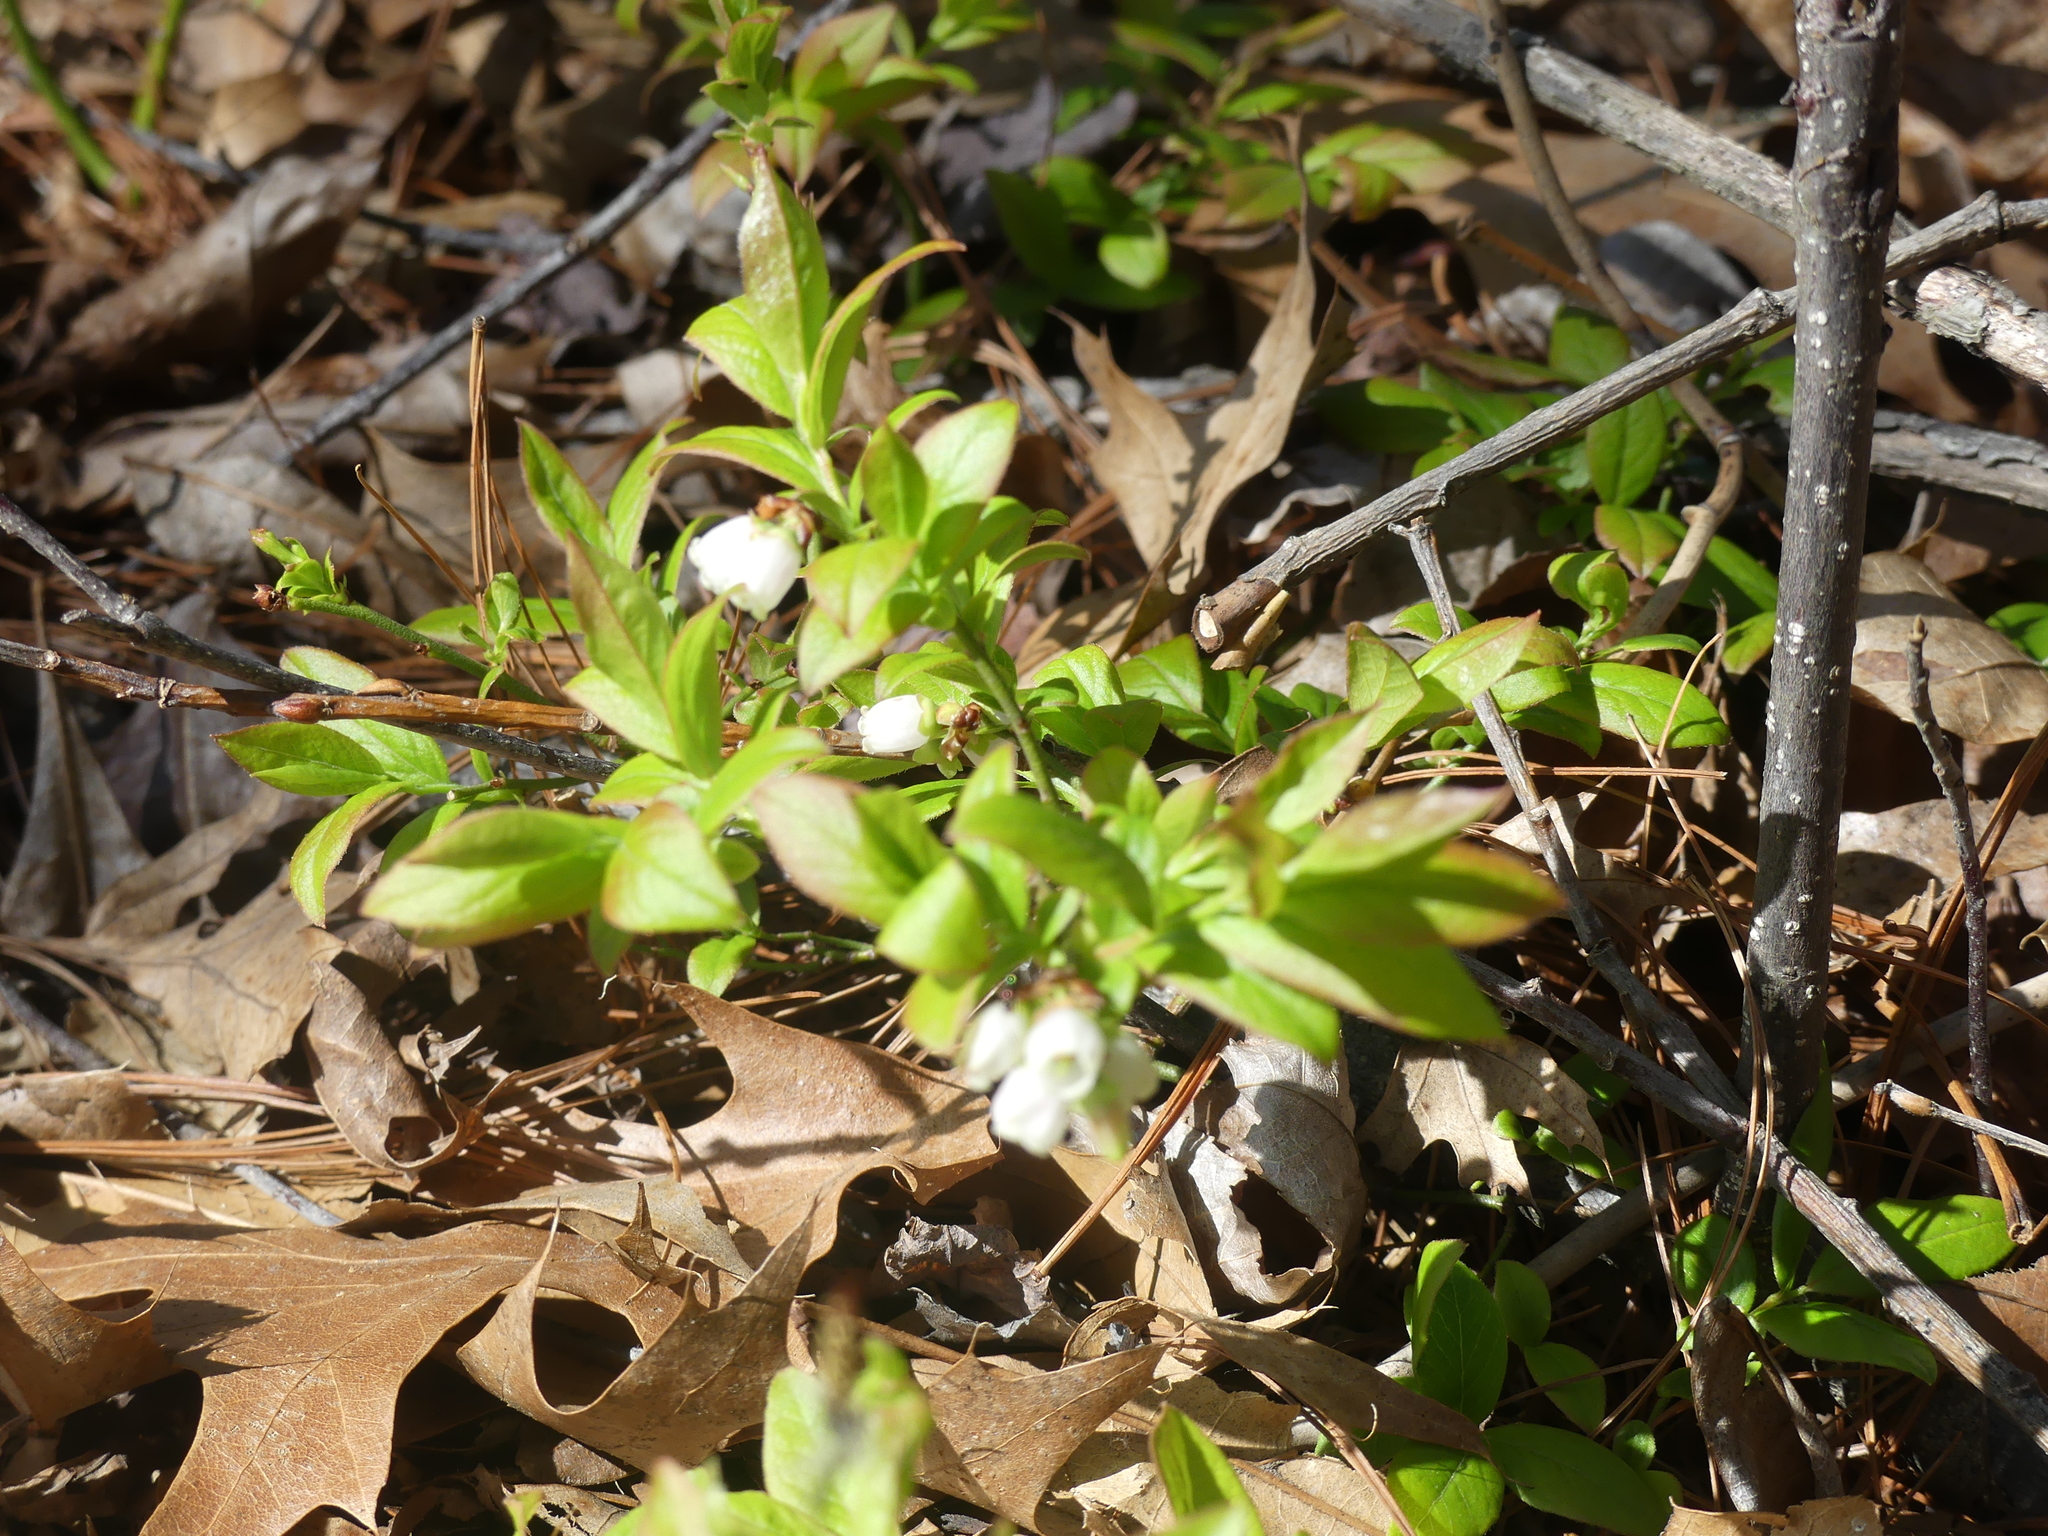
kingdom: Plantae
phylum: Tracheophyta
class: Magnoliopsida
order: Ericales
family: Ericaceae
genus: Vaccinium
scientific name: Vaccinium angustifolium
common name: Early lowbush blueberry
